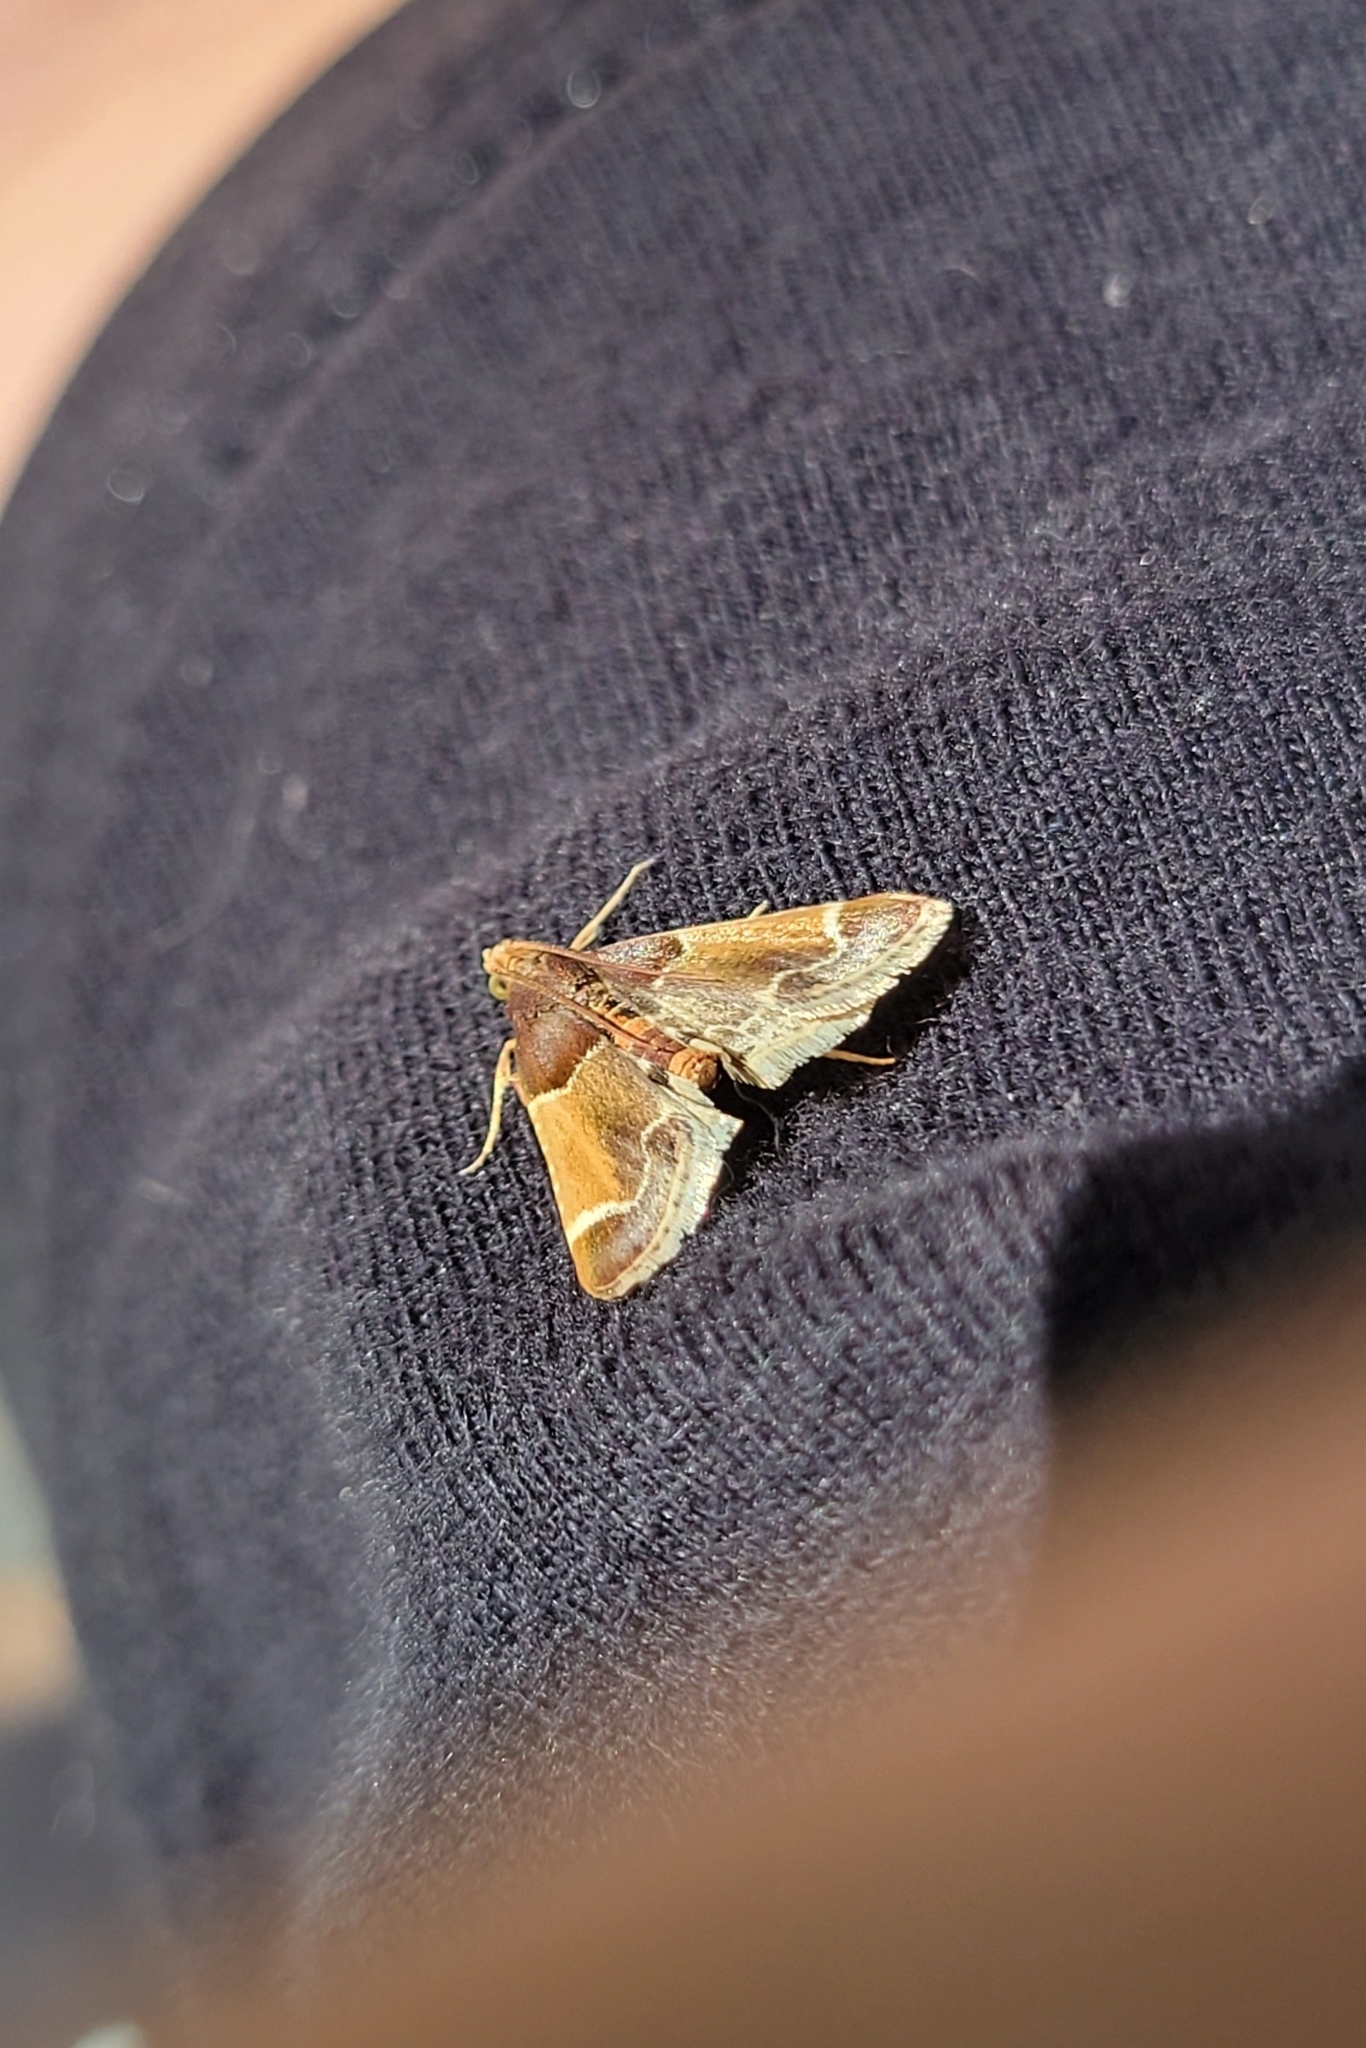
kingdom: Animalia
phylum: Arthropoda
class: Insecta
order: Lepidoptera
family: Pyralidae
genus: Pyralis
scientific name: Pyralis farinalis
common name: Meal moth
